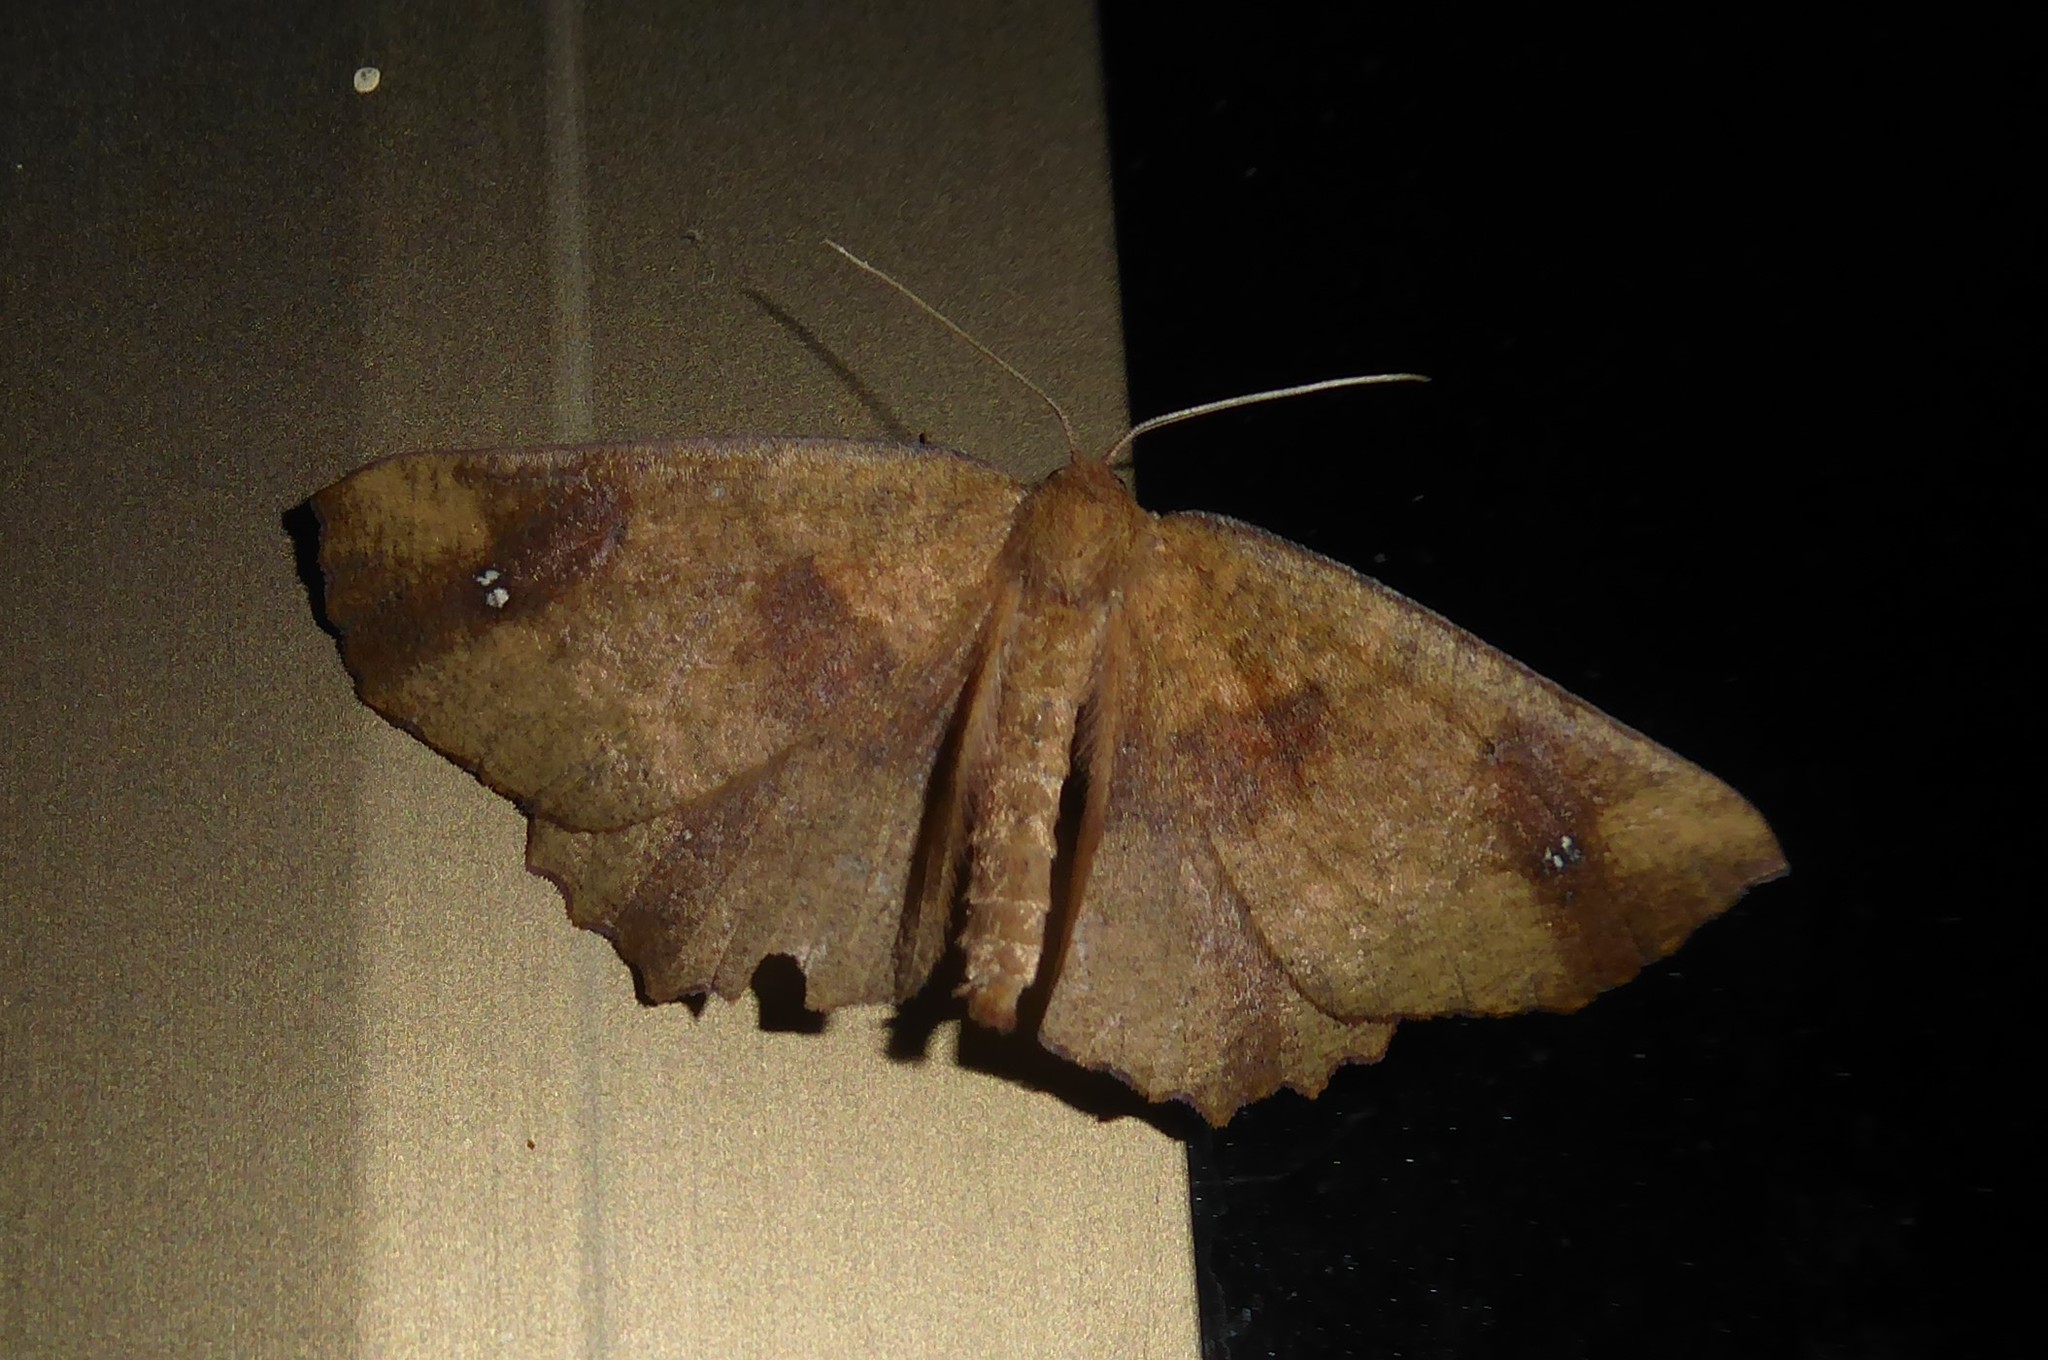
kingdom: Animalia
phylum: Arthropoda
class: Insecta
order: Lepidoptera
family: Geometridae
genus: Xyridacma
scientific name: Xyridacma ustaria
